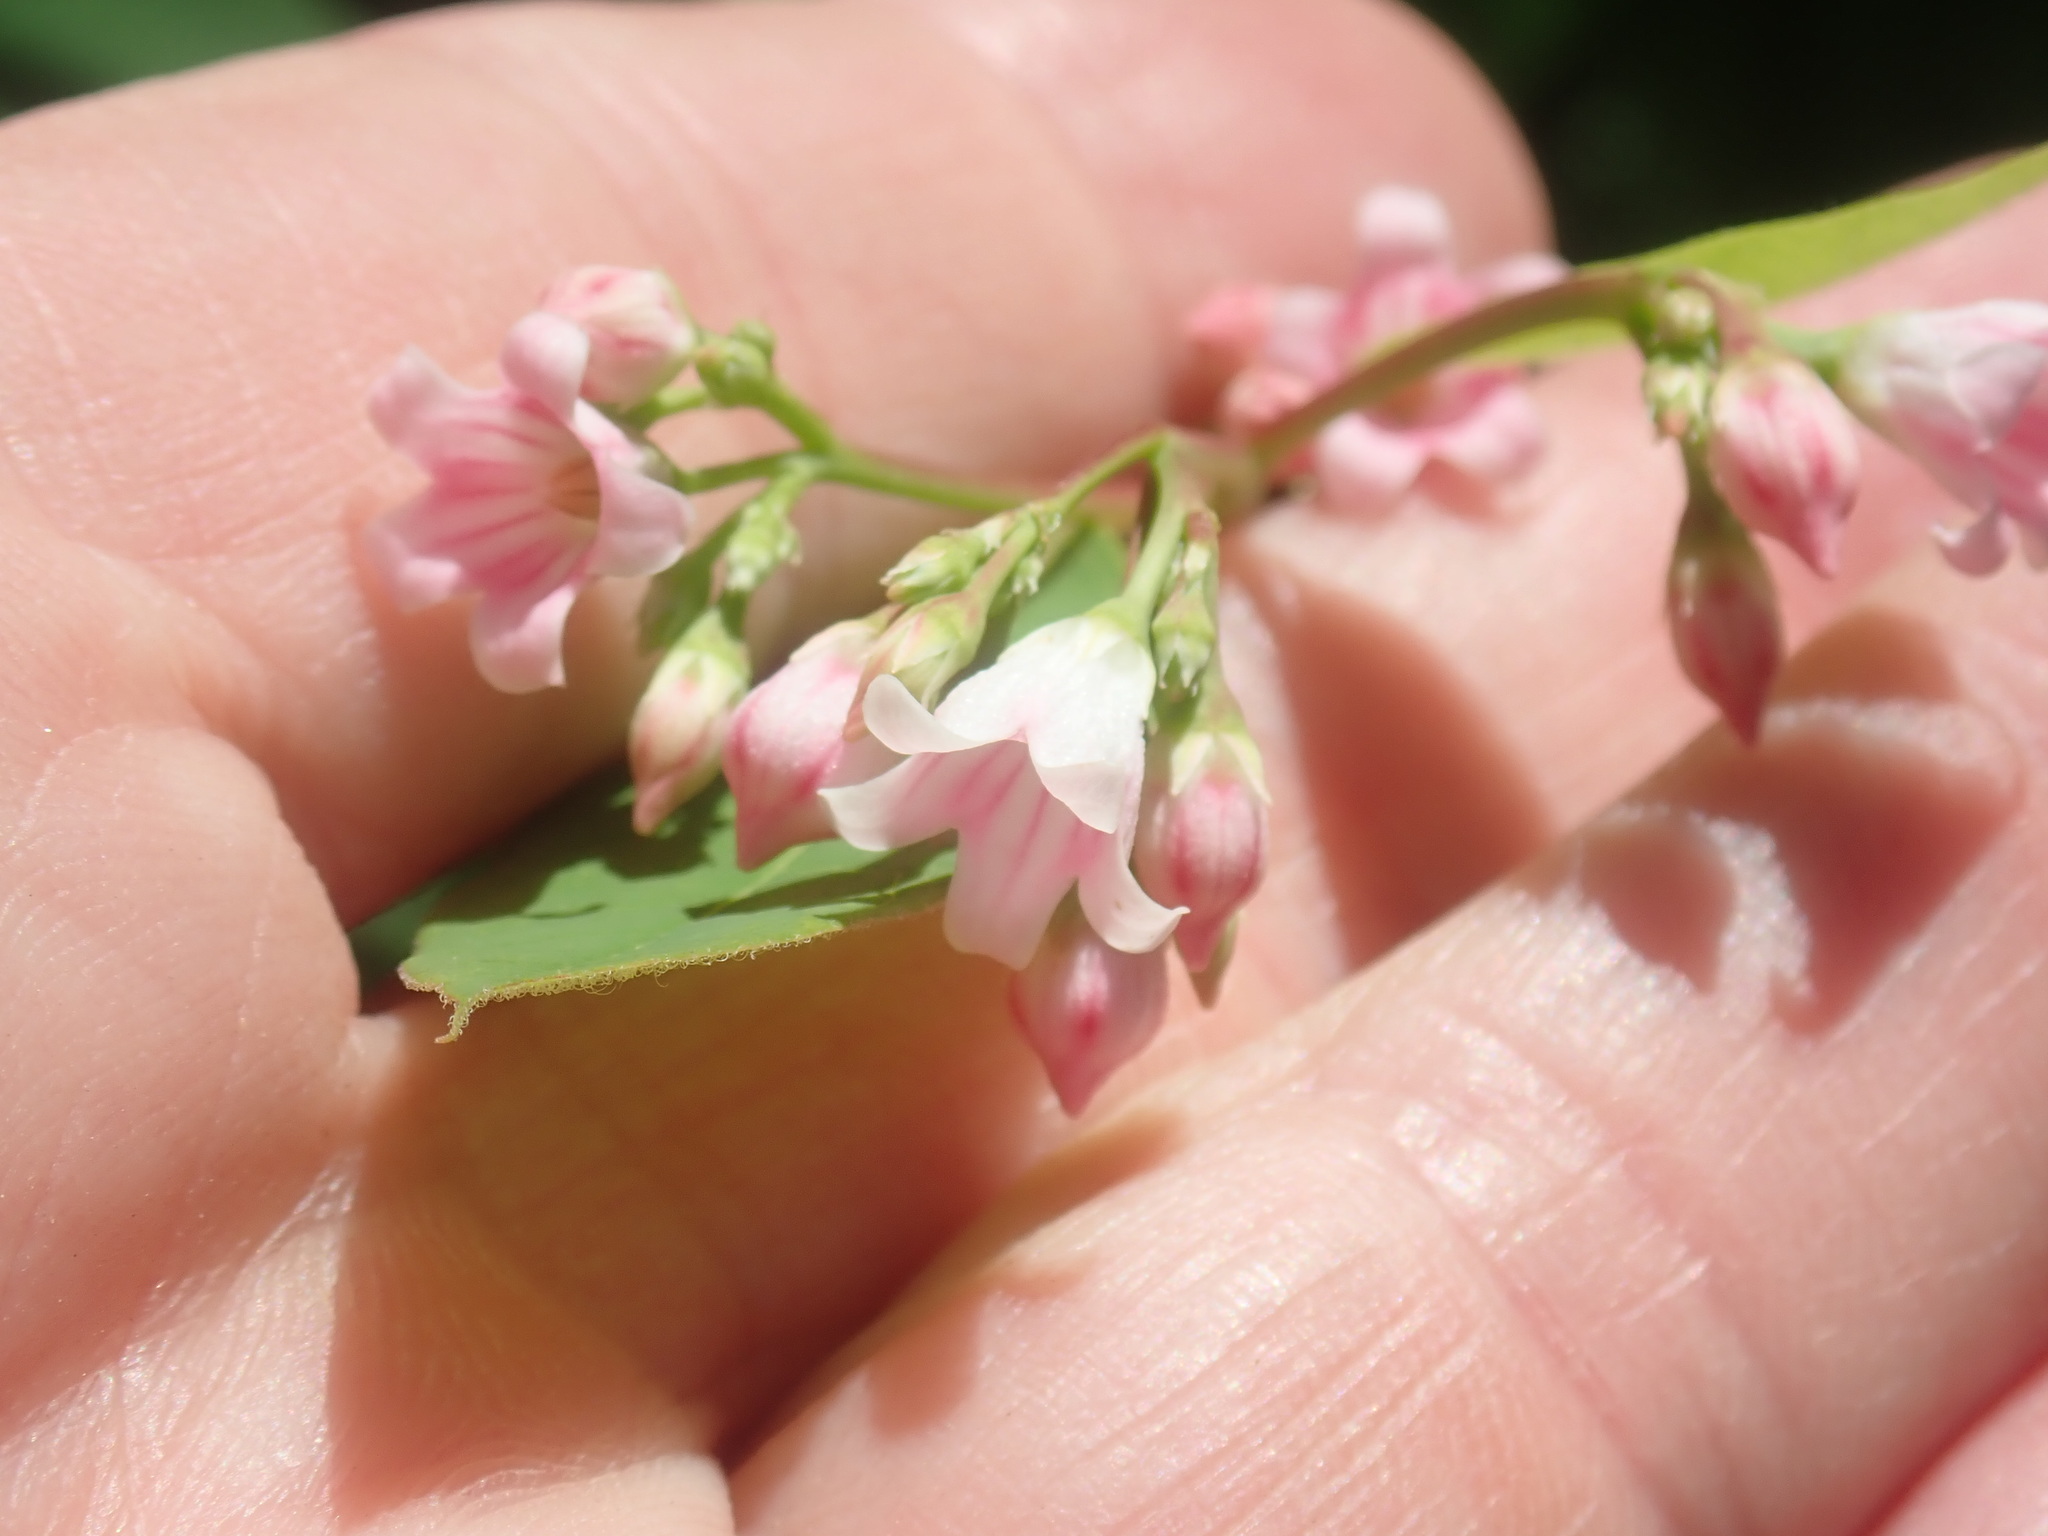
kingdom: Plantae
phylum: Tracheophyta
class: Magnoliopsida
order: Gentianales
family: Apocynaceae
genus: Apocynum
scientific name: Apocynum androsaemifolium
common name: Spreading dogbane
